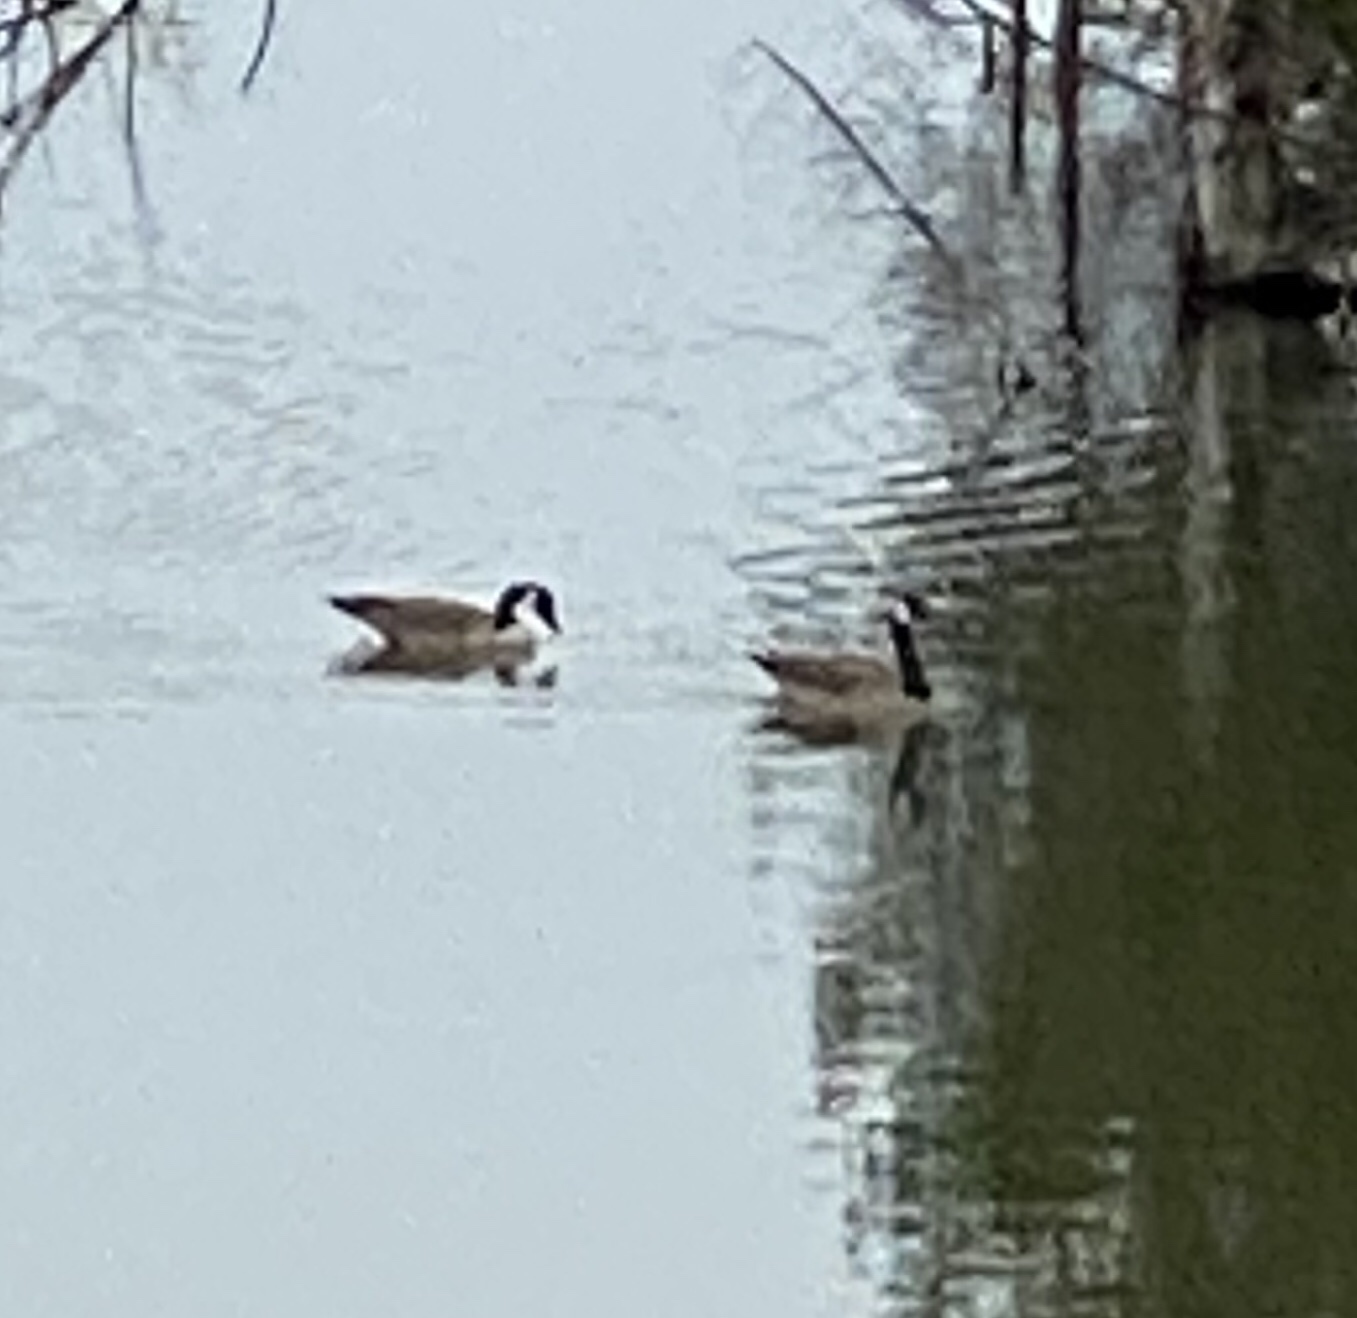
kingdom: Animalia
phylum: Chordata
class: Aves
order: Anseriformes
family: Anatidae
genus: Branta
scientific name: Branta canadensis
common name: Canada goose
